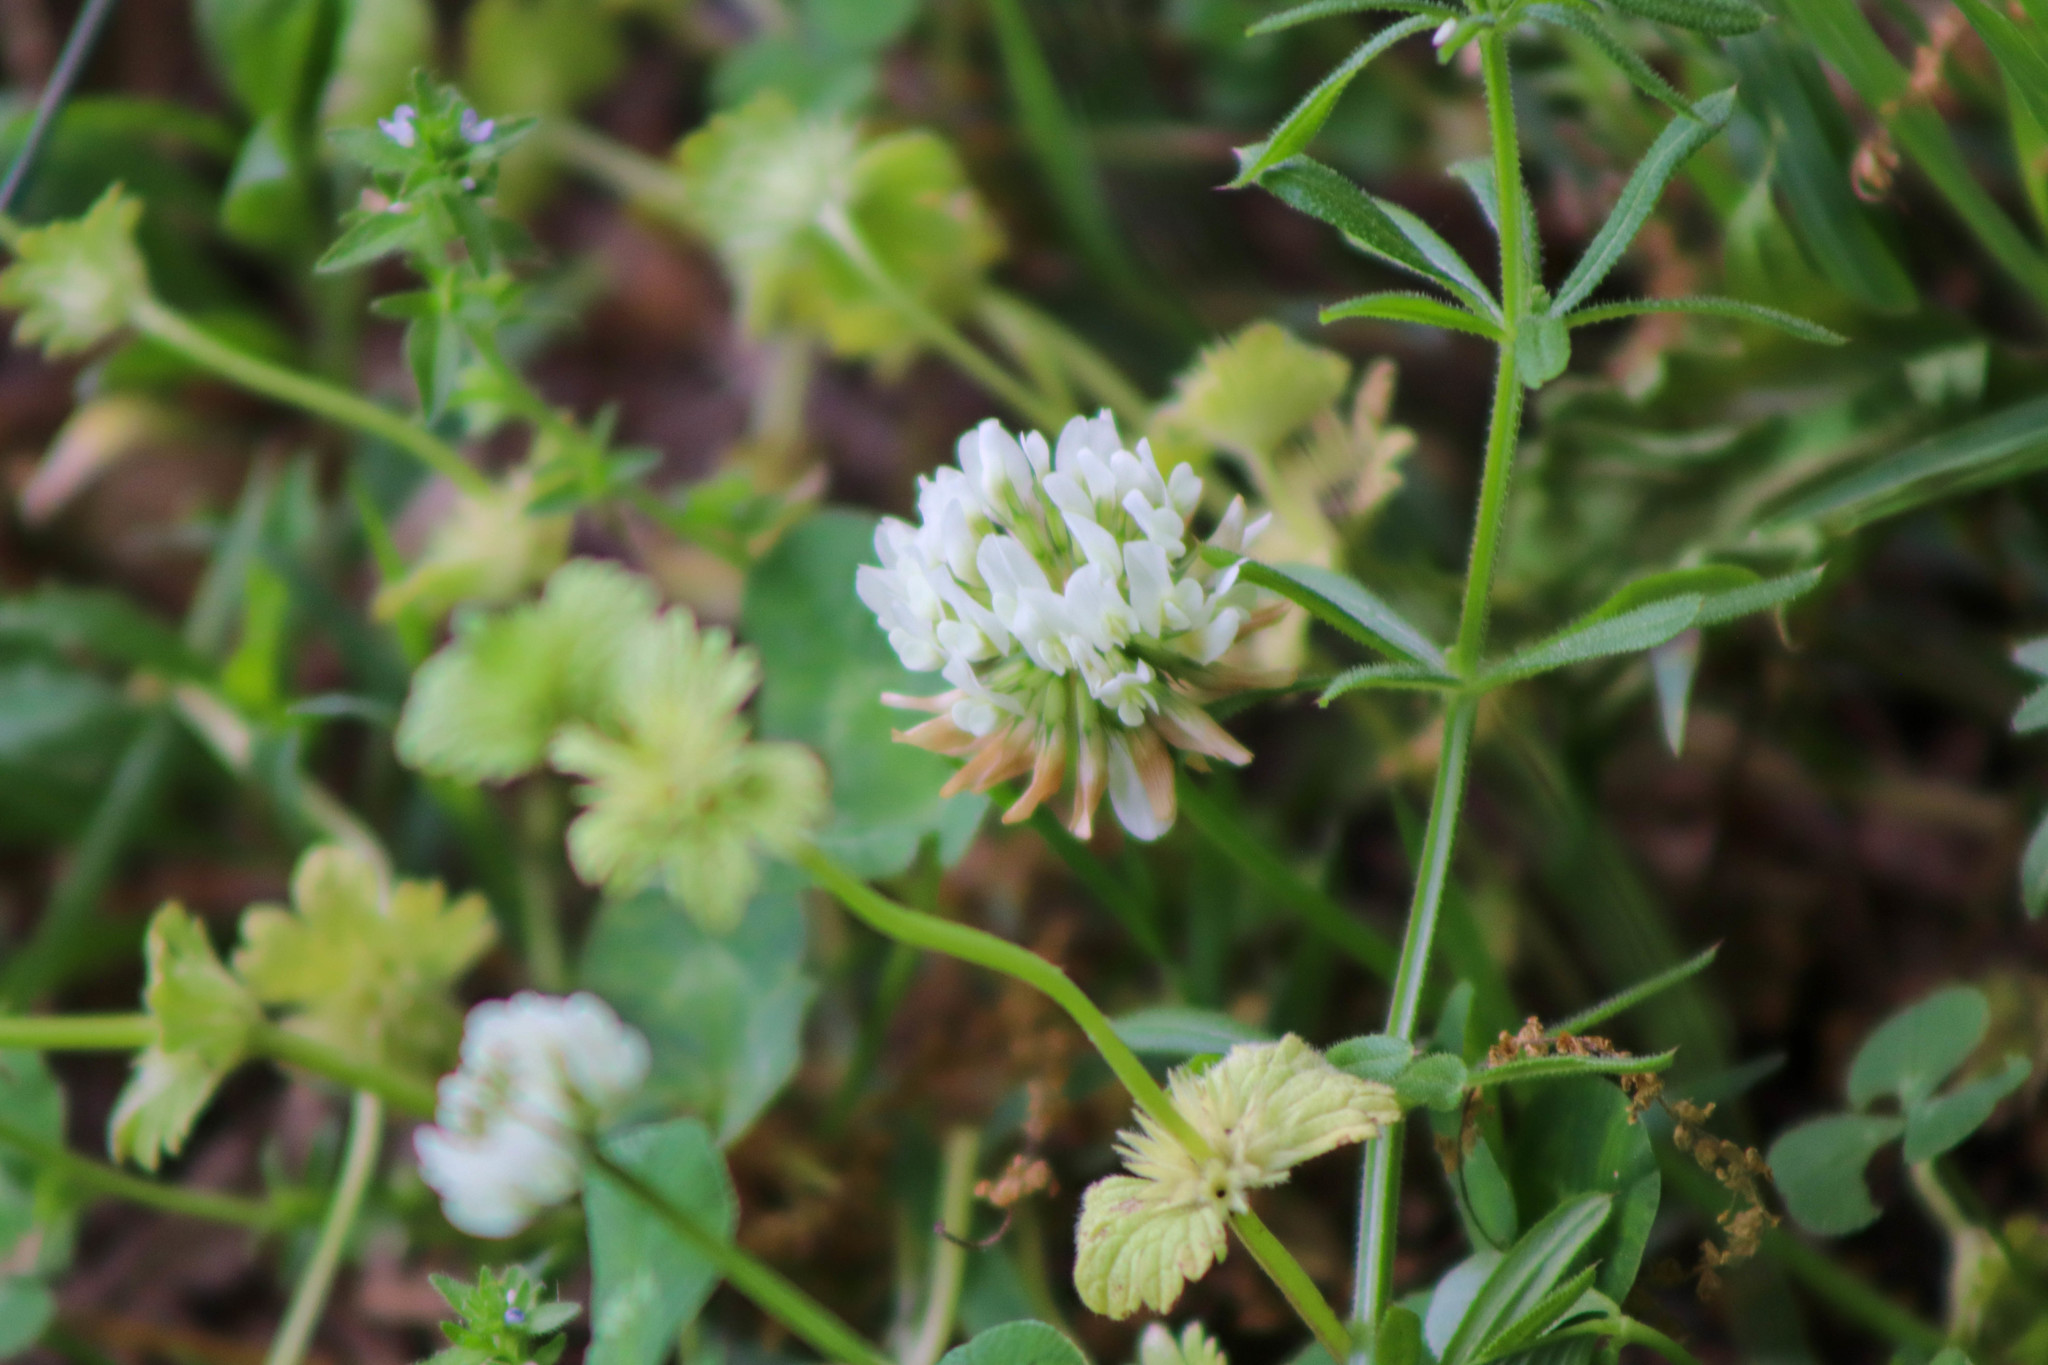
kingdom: Plantae
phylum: Tracheophyta
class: Magnoliopsida
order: Fabales
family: Fabaceae
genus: Trifolium
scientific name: Trifolium repens
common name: White clover
